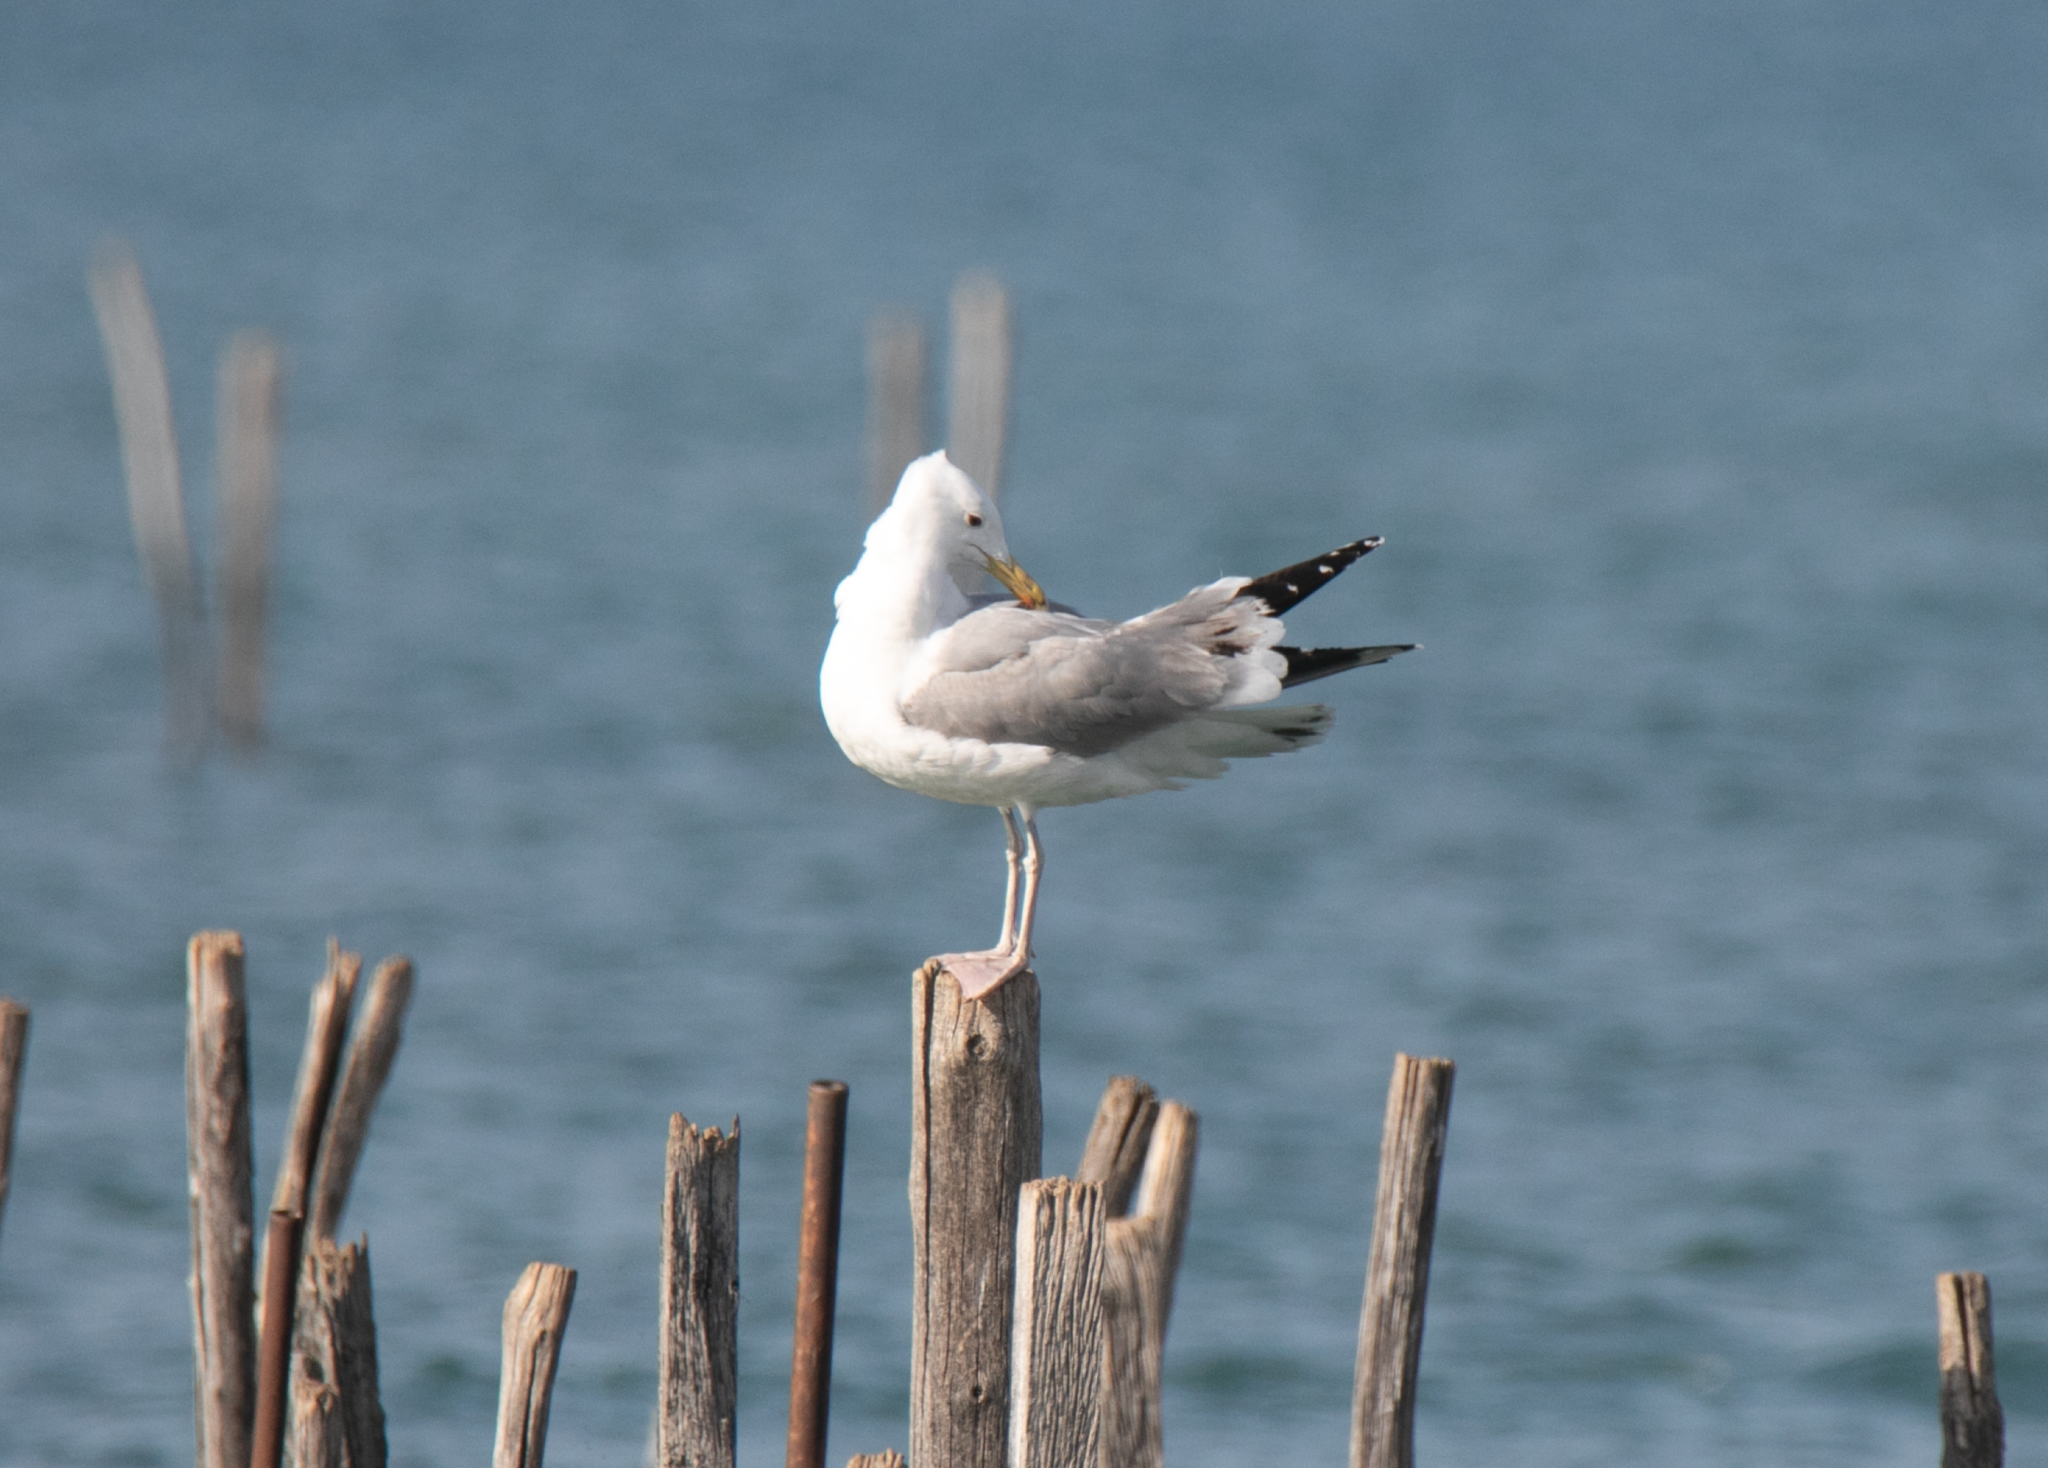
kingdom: Animalia
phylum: Chordata
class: Aves
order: Charadriiformes
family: Laridae
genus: Larus
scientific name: Larus cachinnans
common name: Caspian gull
